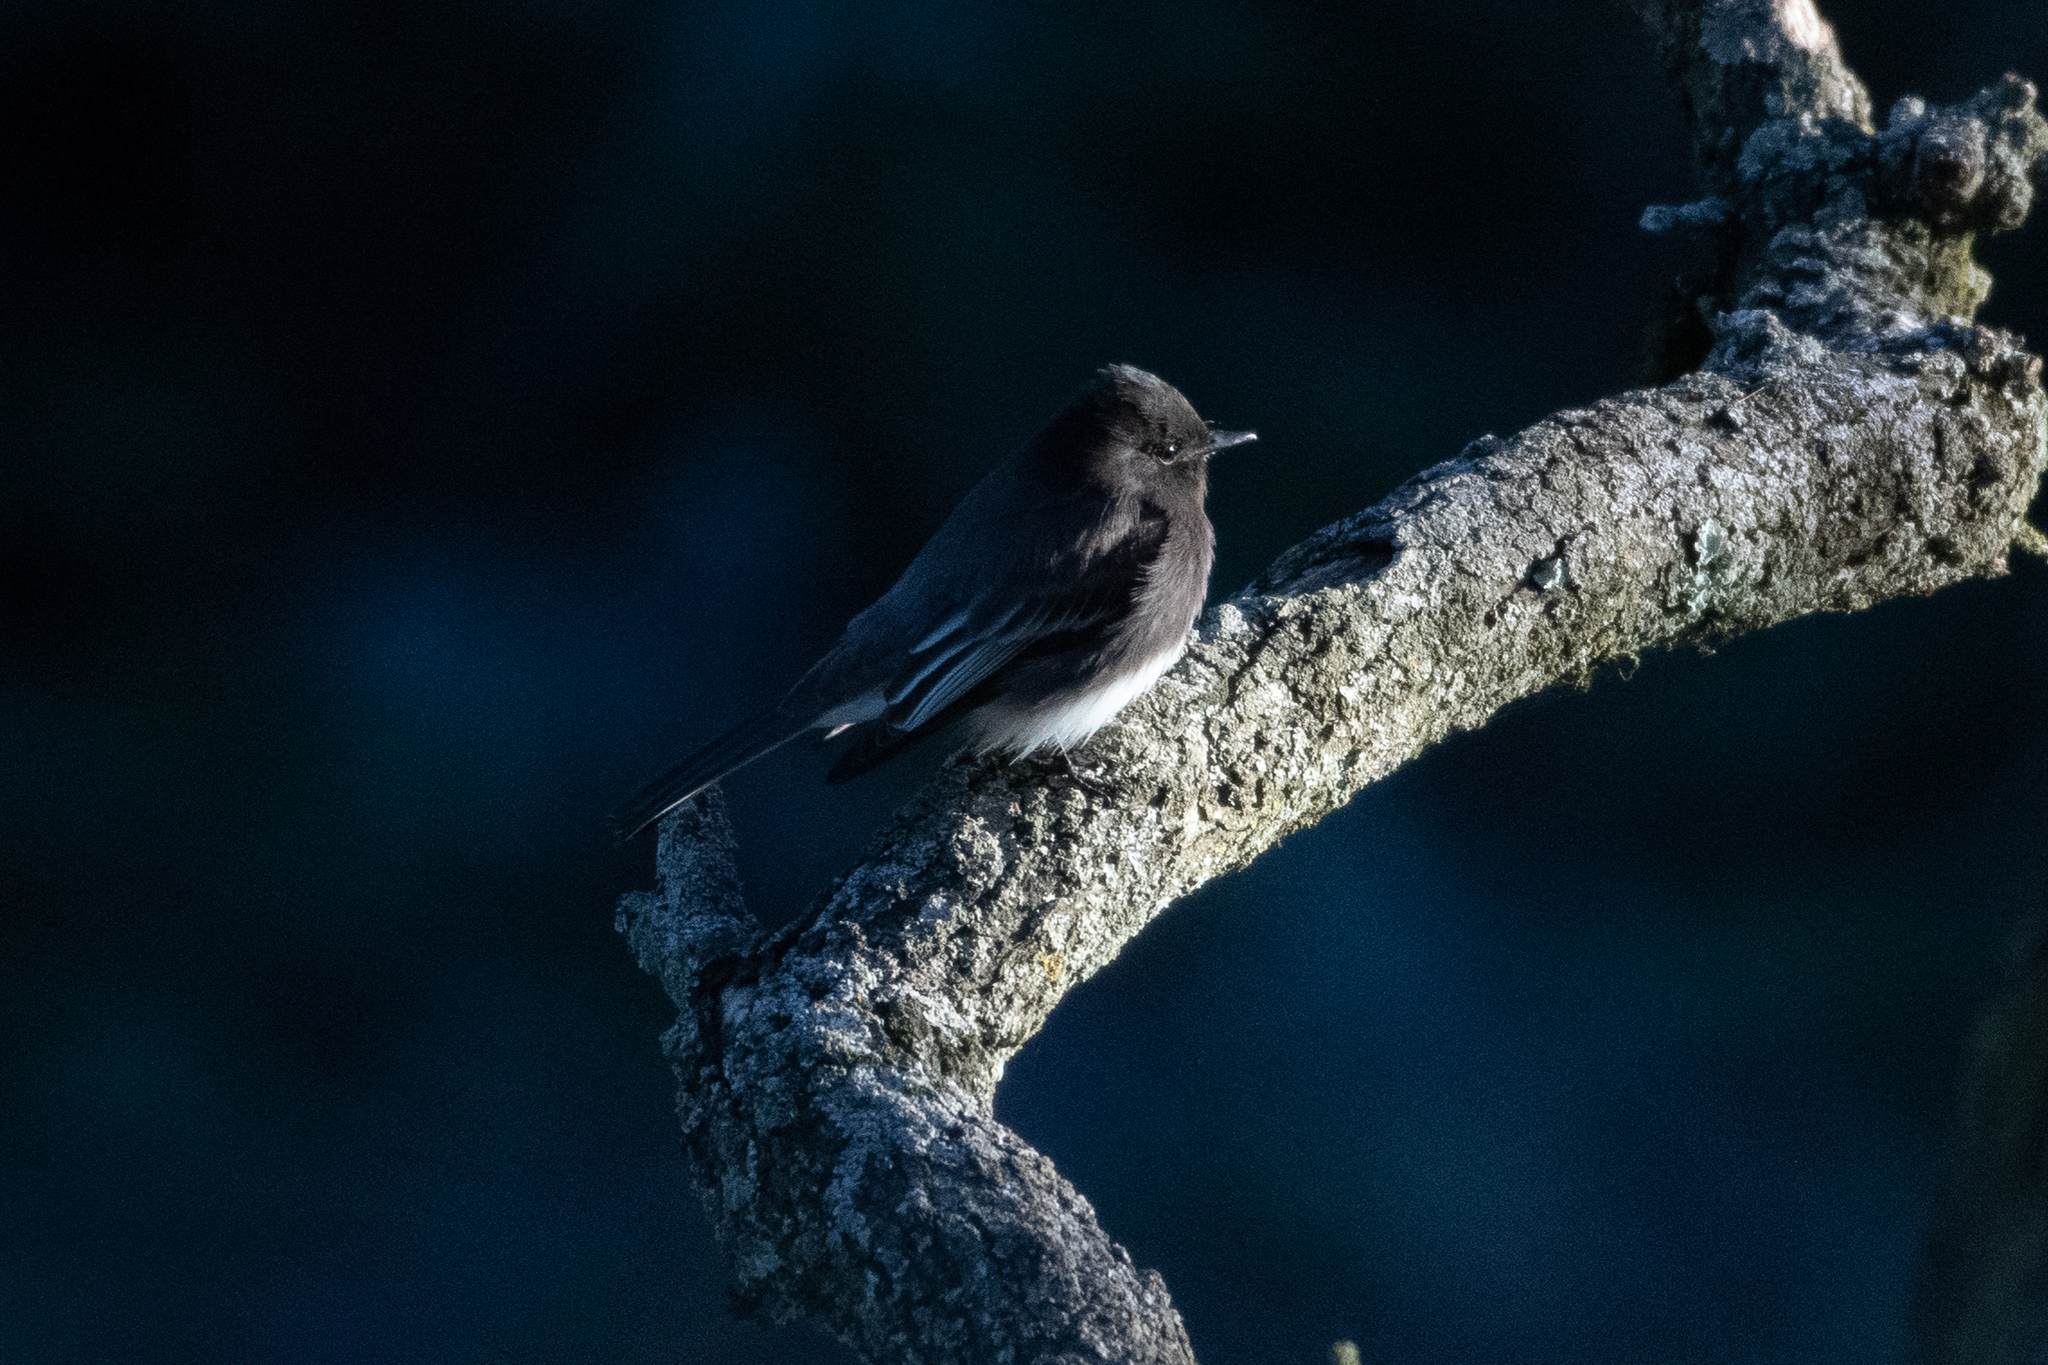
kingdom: Animalia
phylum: Chordata
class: Aves
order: Passeriformes
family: Tyrannidae
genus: Sayornis
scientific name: Sayornis nigricans
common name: Black phoebe
